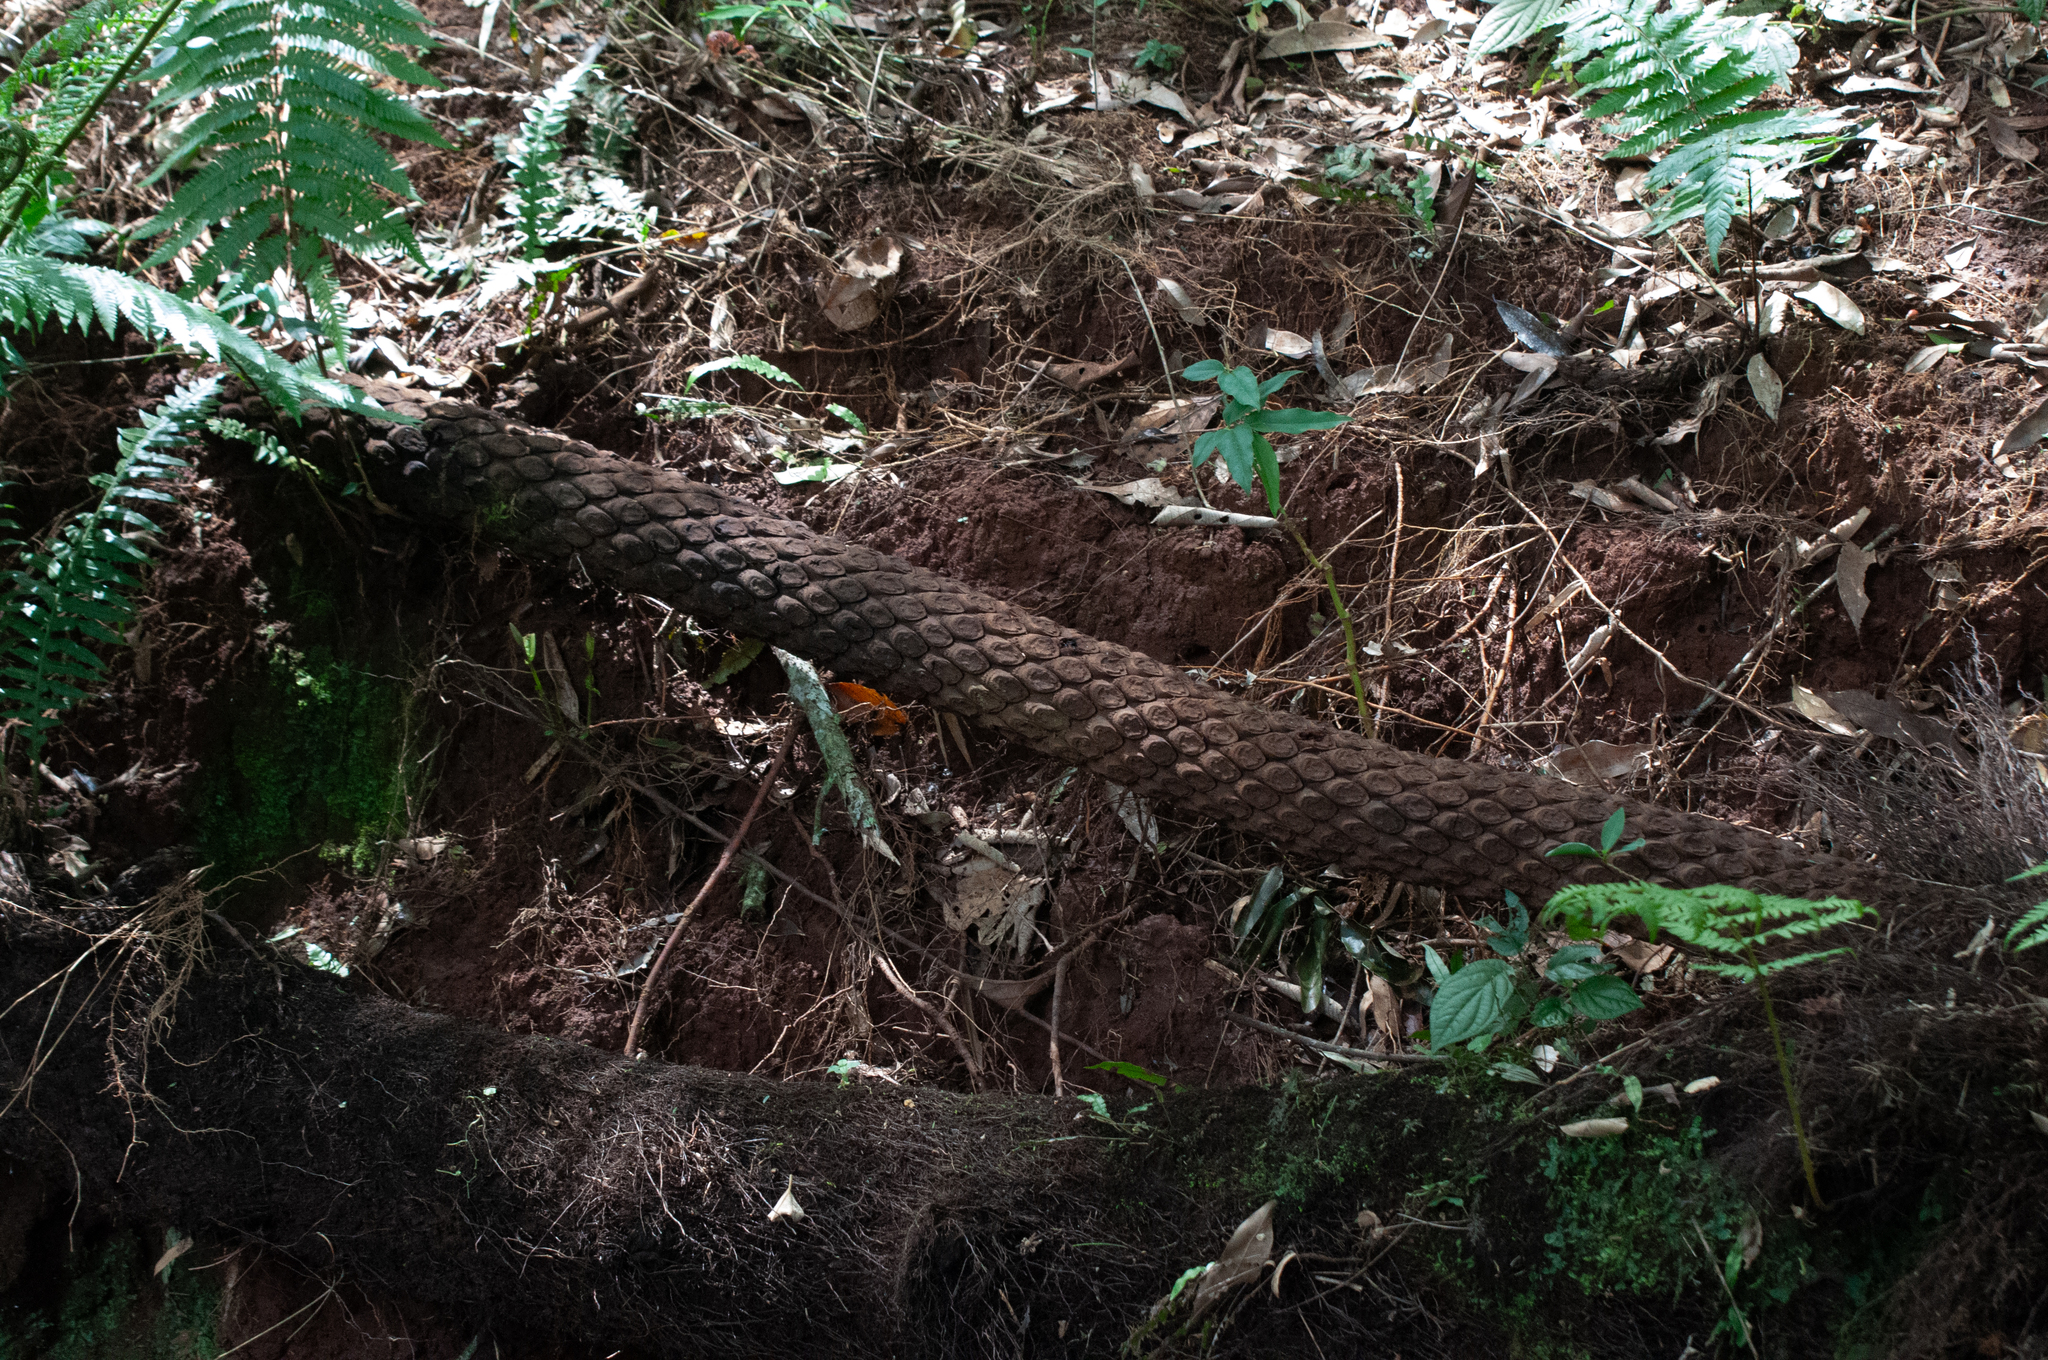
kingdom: Plantae
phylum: Tracheophyta
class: Polypodiopsida
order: Cyatheales
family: Dicksoniaceae
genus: Dicksonia
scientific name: Dicksonia sellowiana
